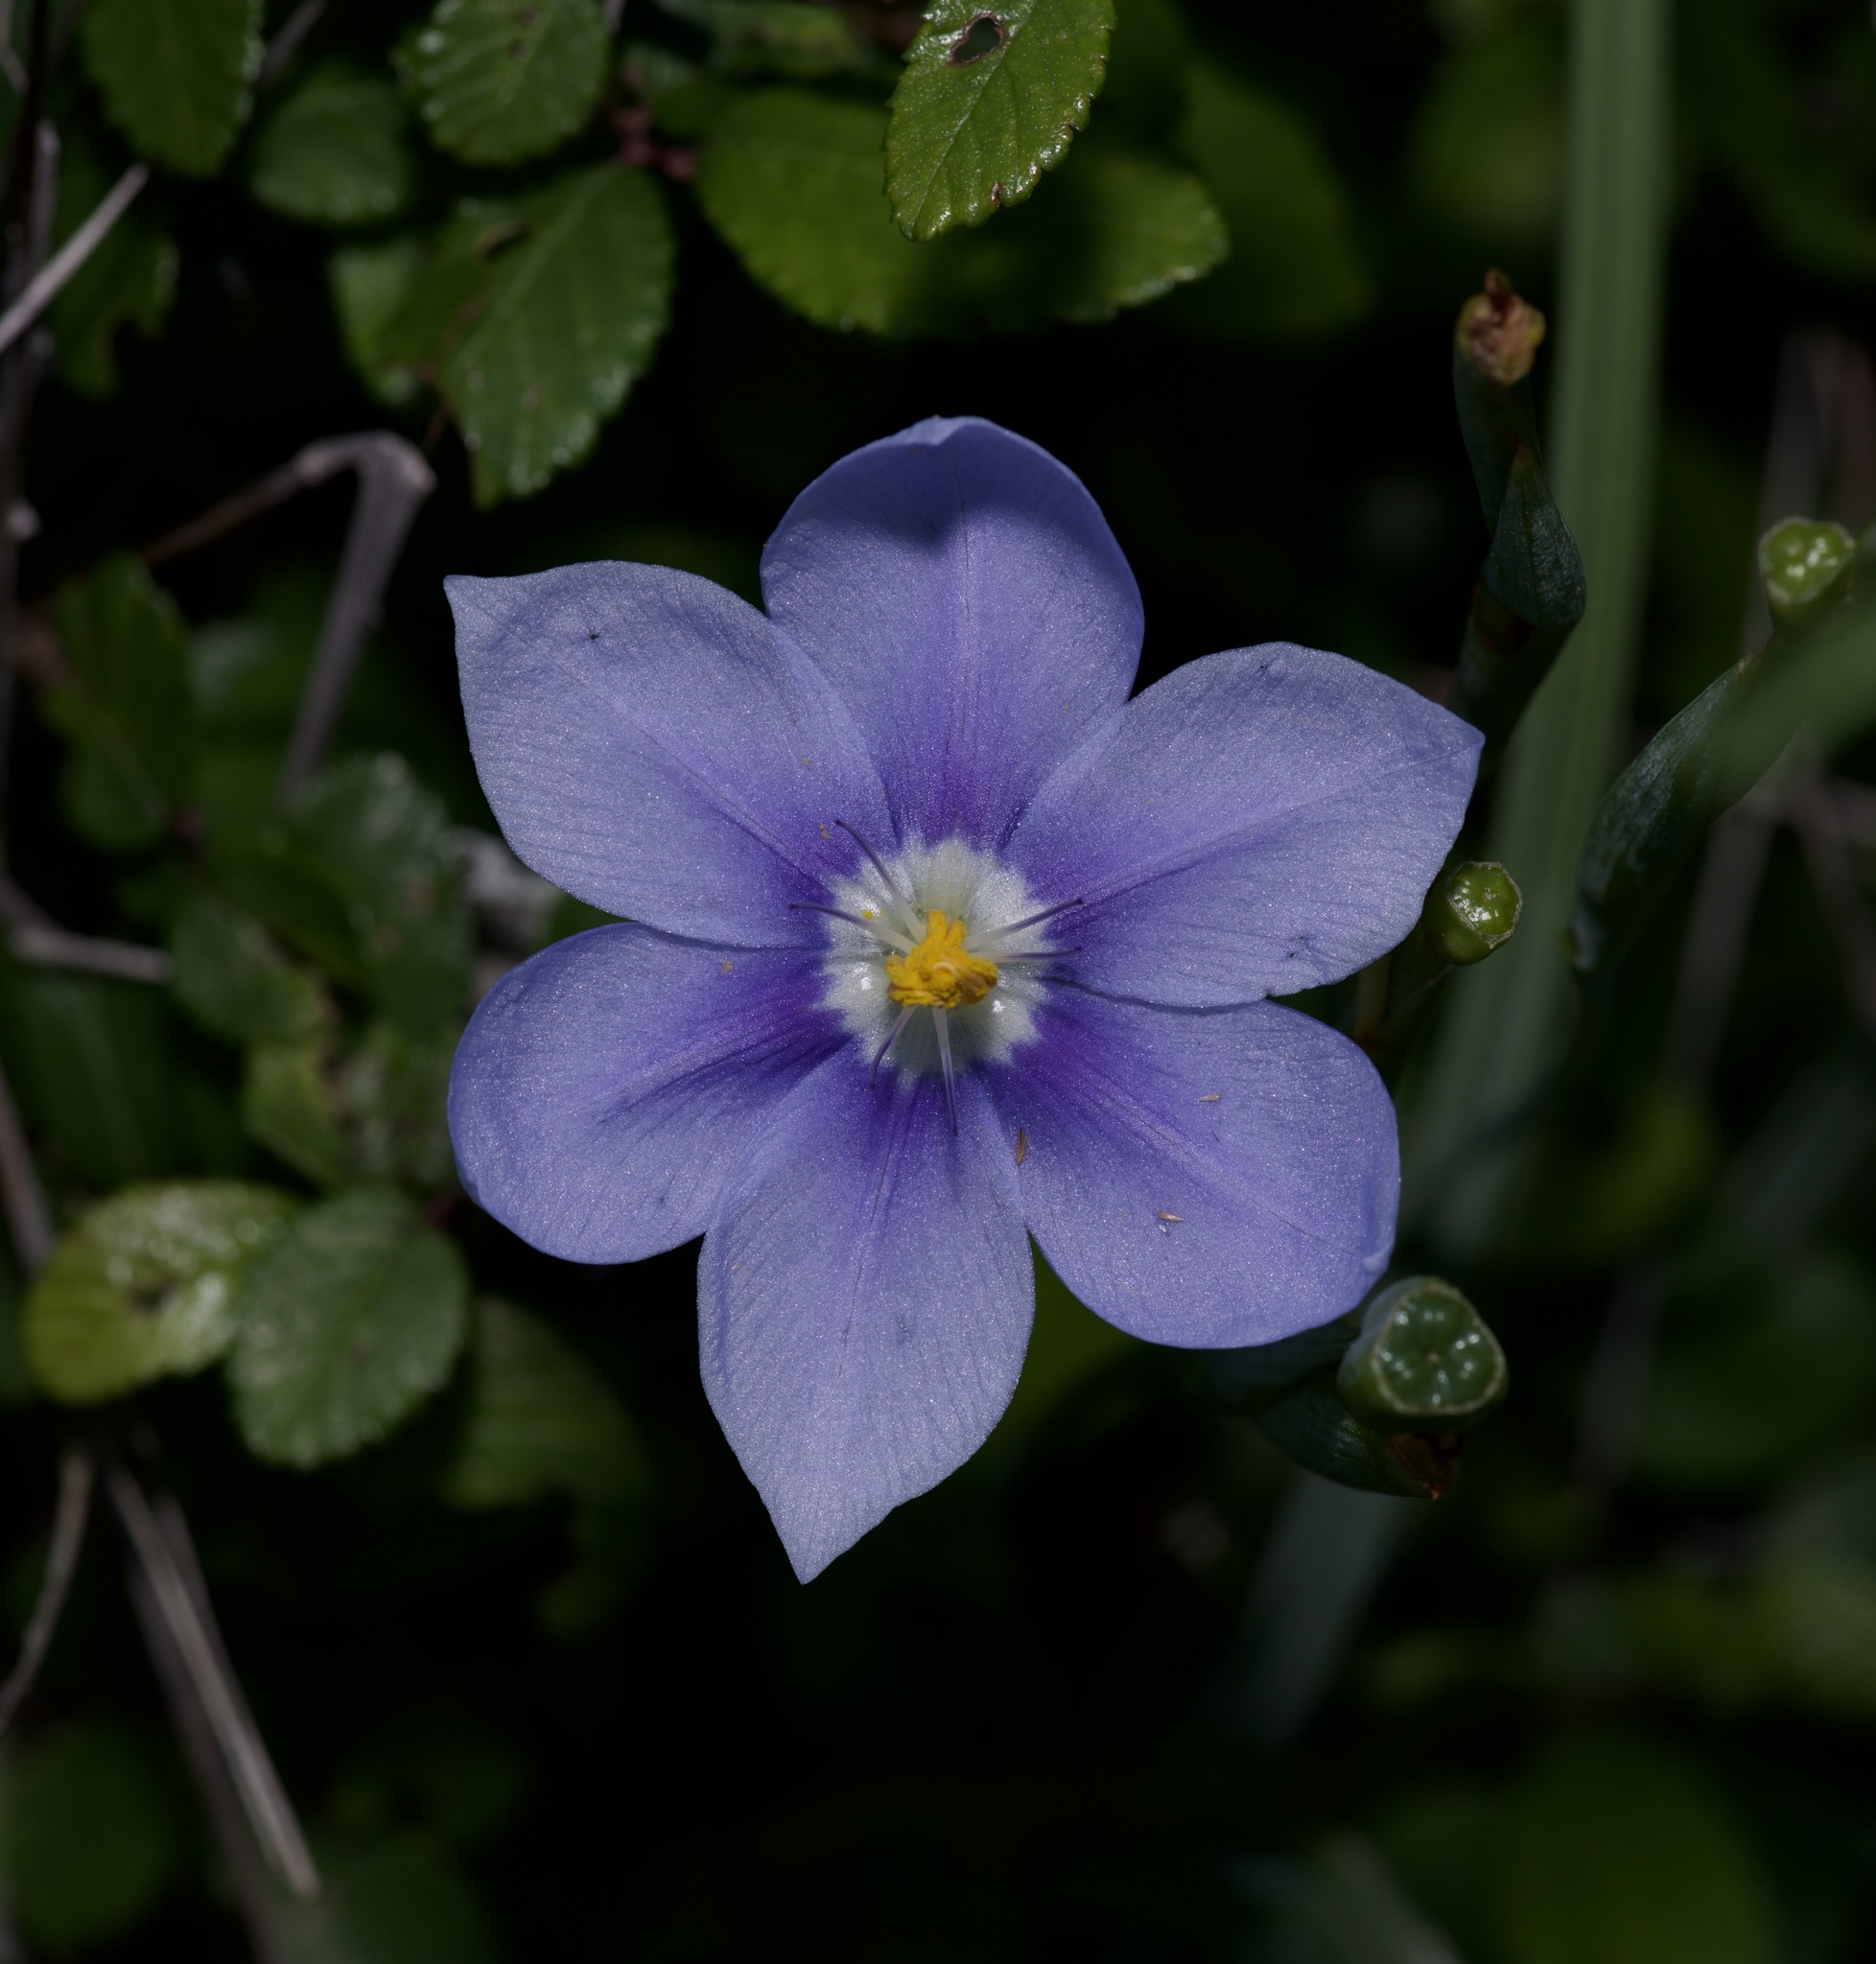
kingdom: Plantae
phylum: Tracheophyta
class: Liliopsida
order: Asparagales
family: Iridaceae
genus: Nemastylis
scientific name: Nemastylis geminiflora
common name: Prairie celestial
